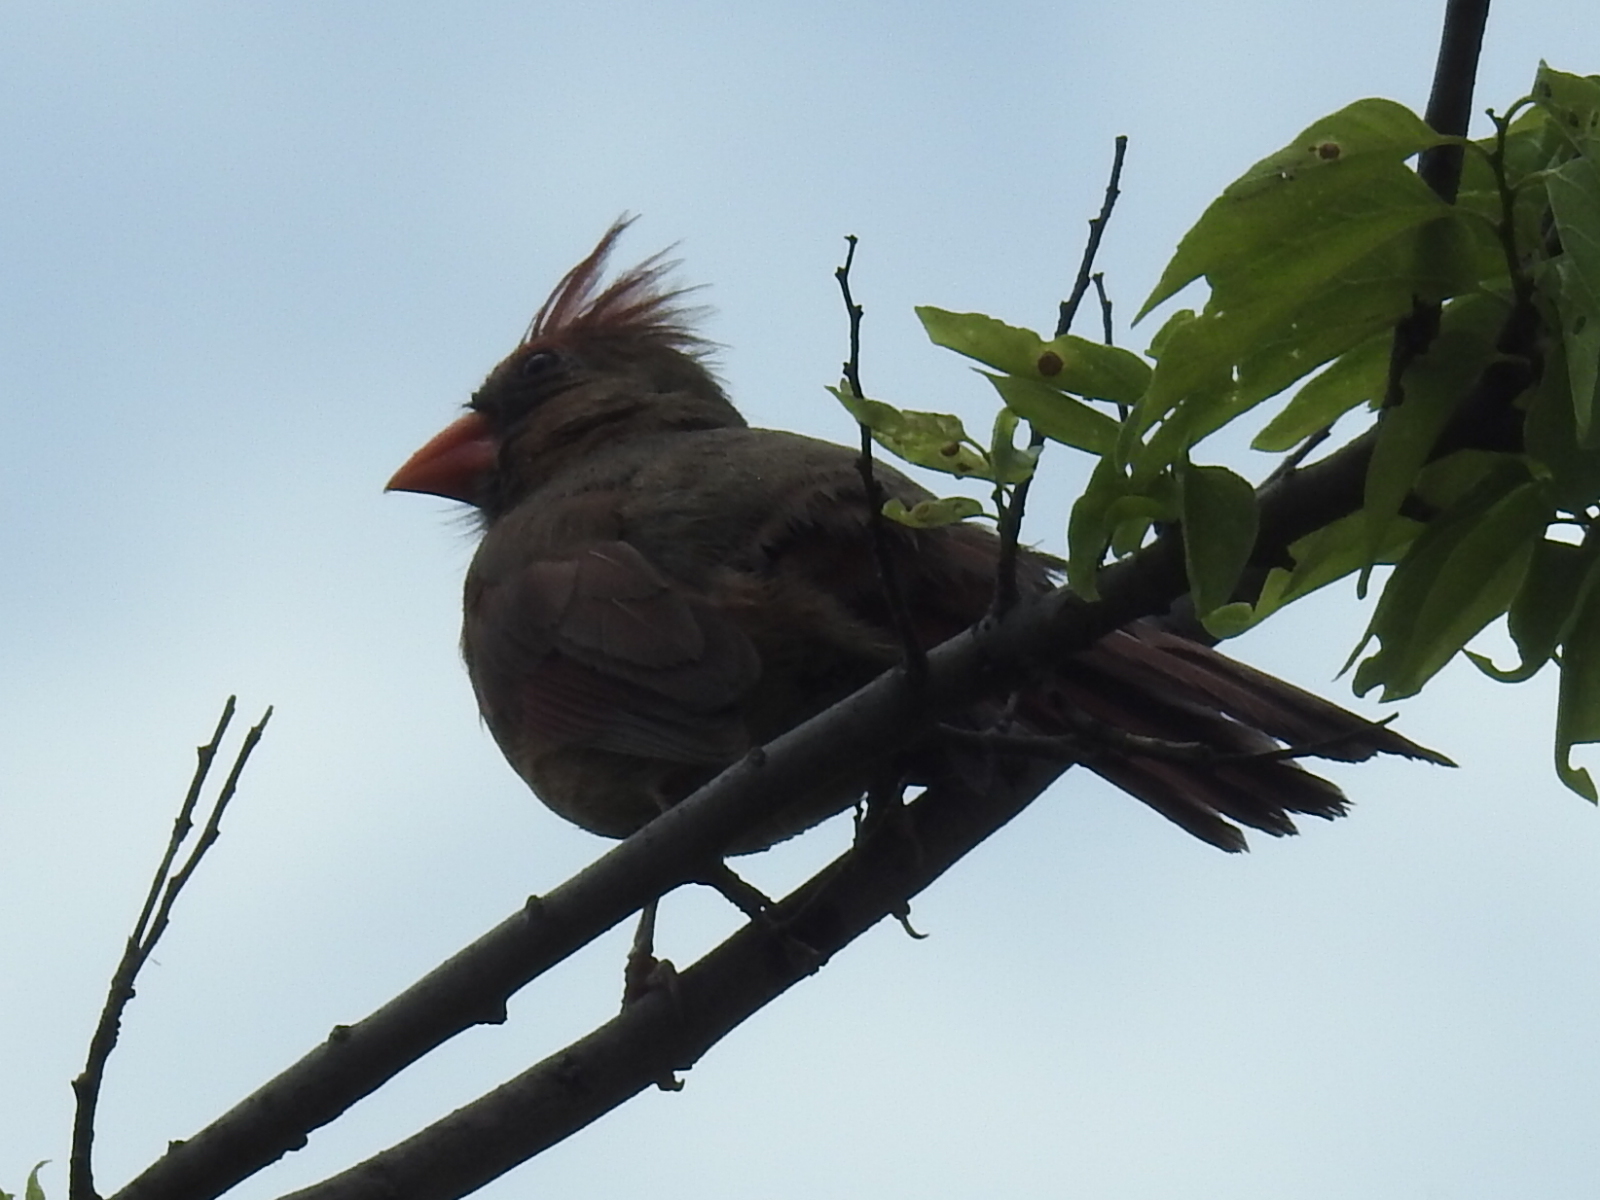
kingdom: Animalia
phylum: Chordata
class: Aves
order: Passeriformes
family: Cardinalidae
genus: Cardinalis
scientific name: Cardinalis cardinalis
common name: Northern cardinal
